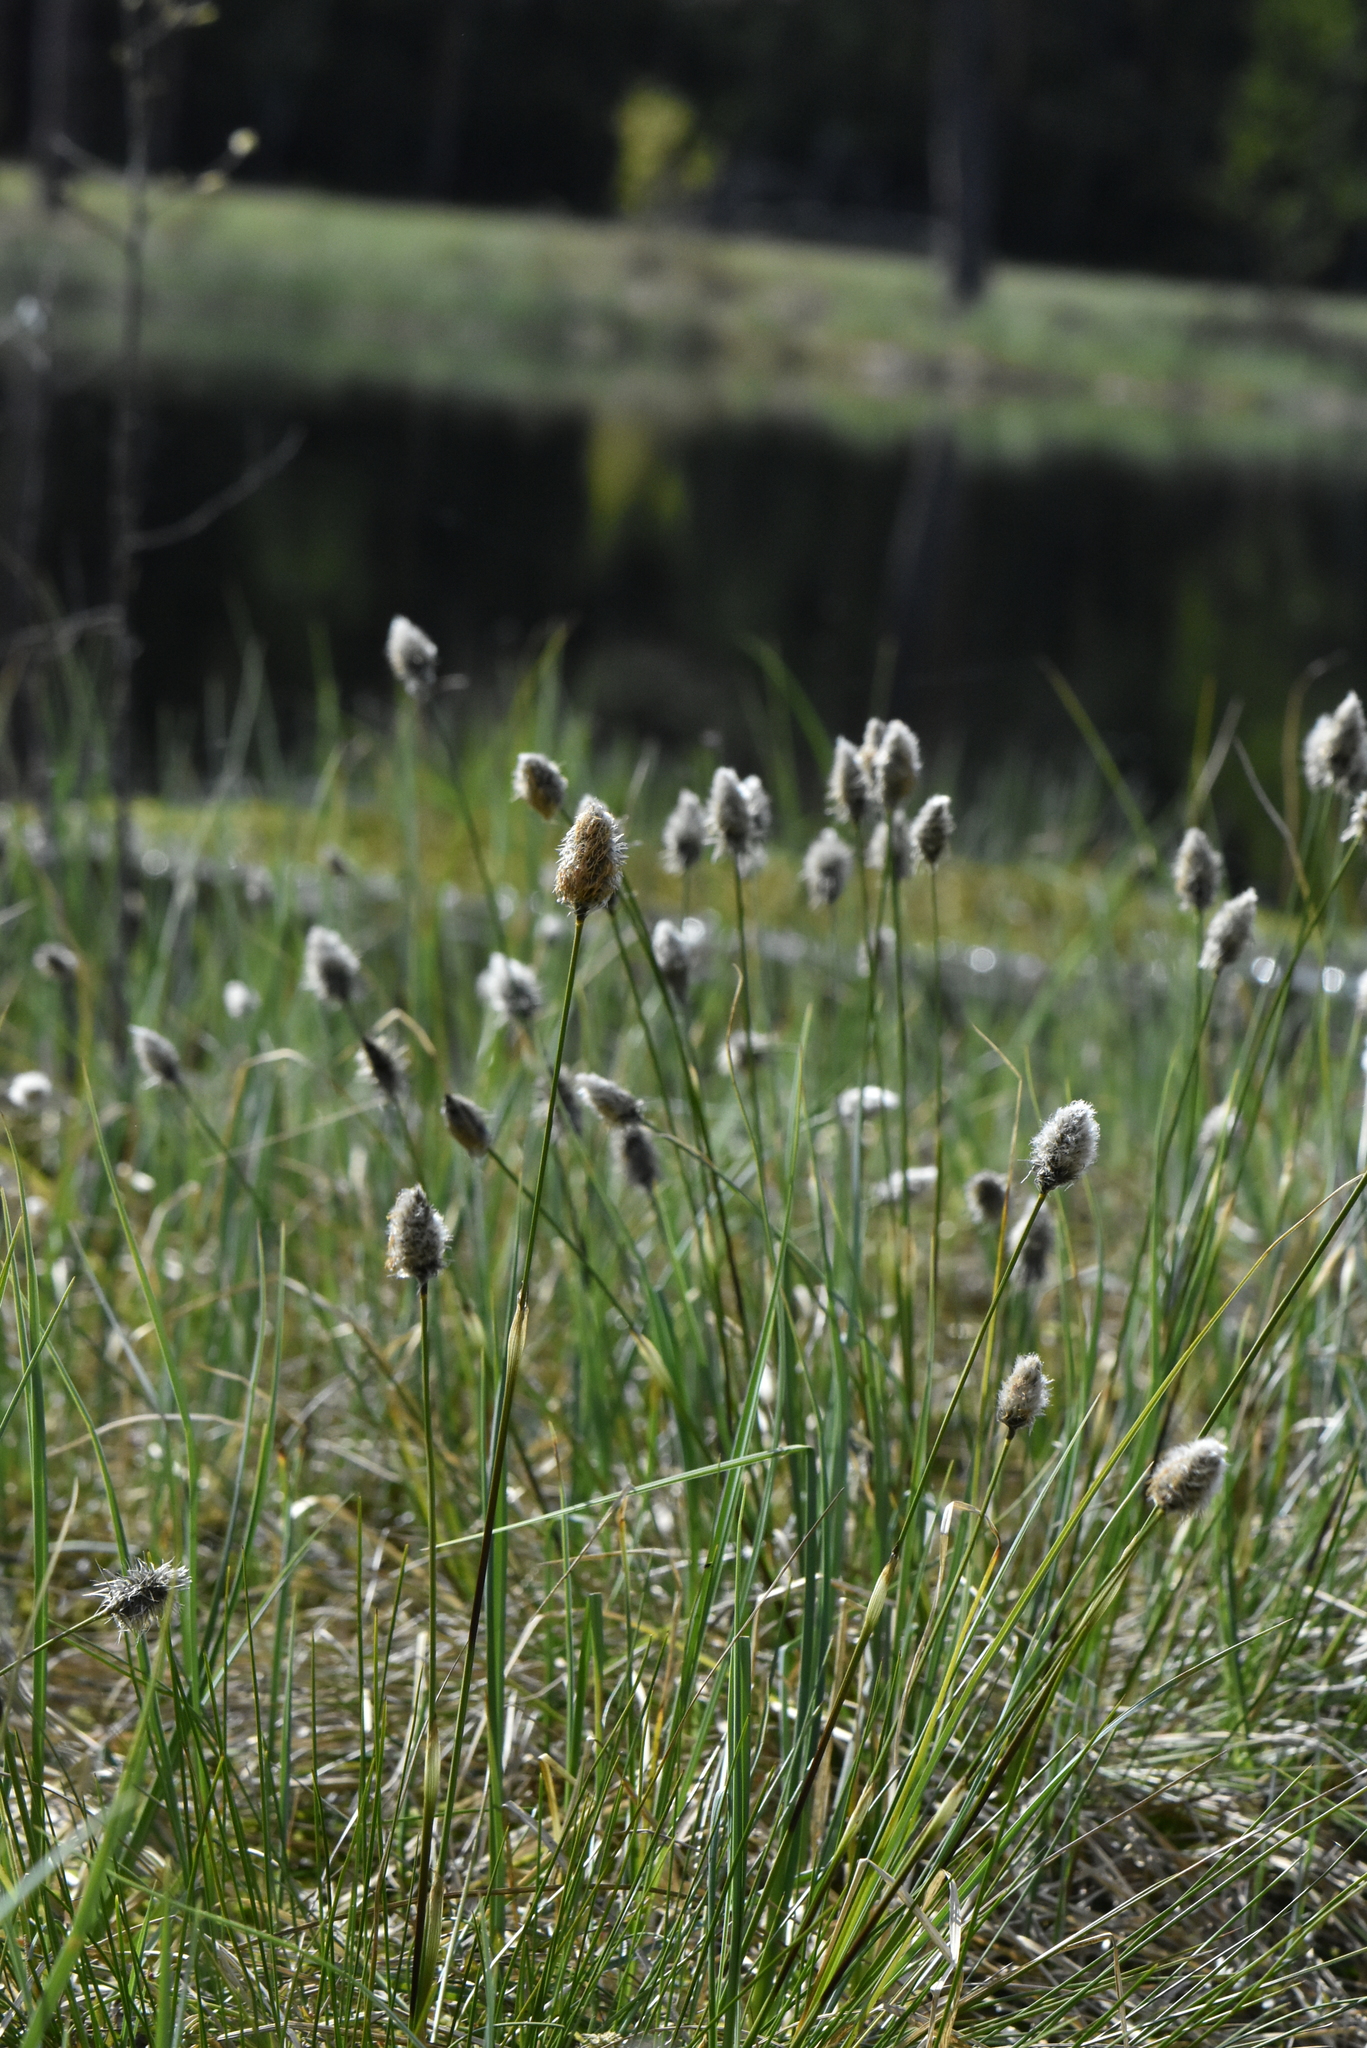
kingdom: Plantae
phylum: Tracheophyta
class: Liliopsida
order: Poales
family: Cyperaceae
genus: Eriophorum
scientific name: Eriophorum vaginatum
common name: Hare's-tail cottongrass
